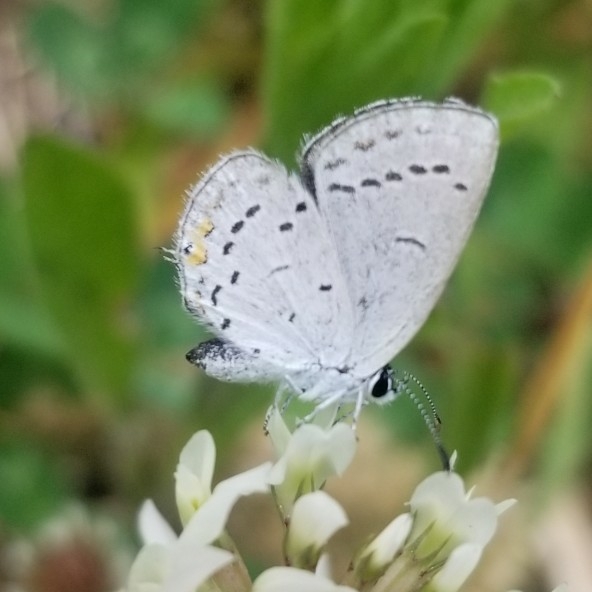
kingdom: Animalia
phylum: Arthropoda
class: Insecta
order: Lepidoptera
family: Lycaenidae
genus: Elkalyce
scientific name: Elkalyce comyntas
